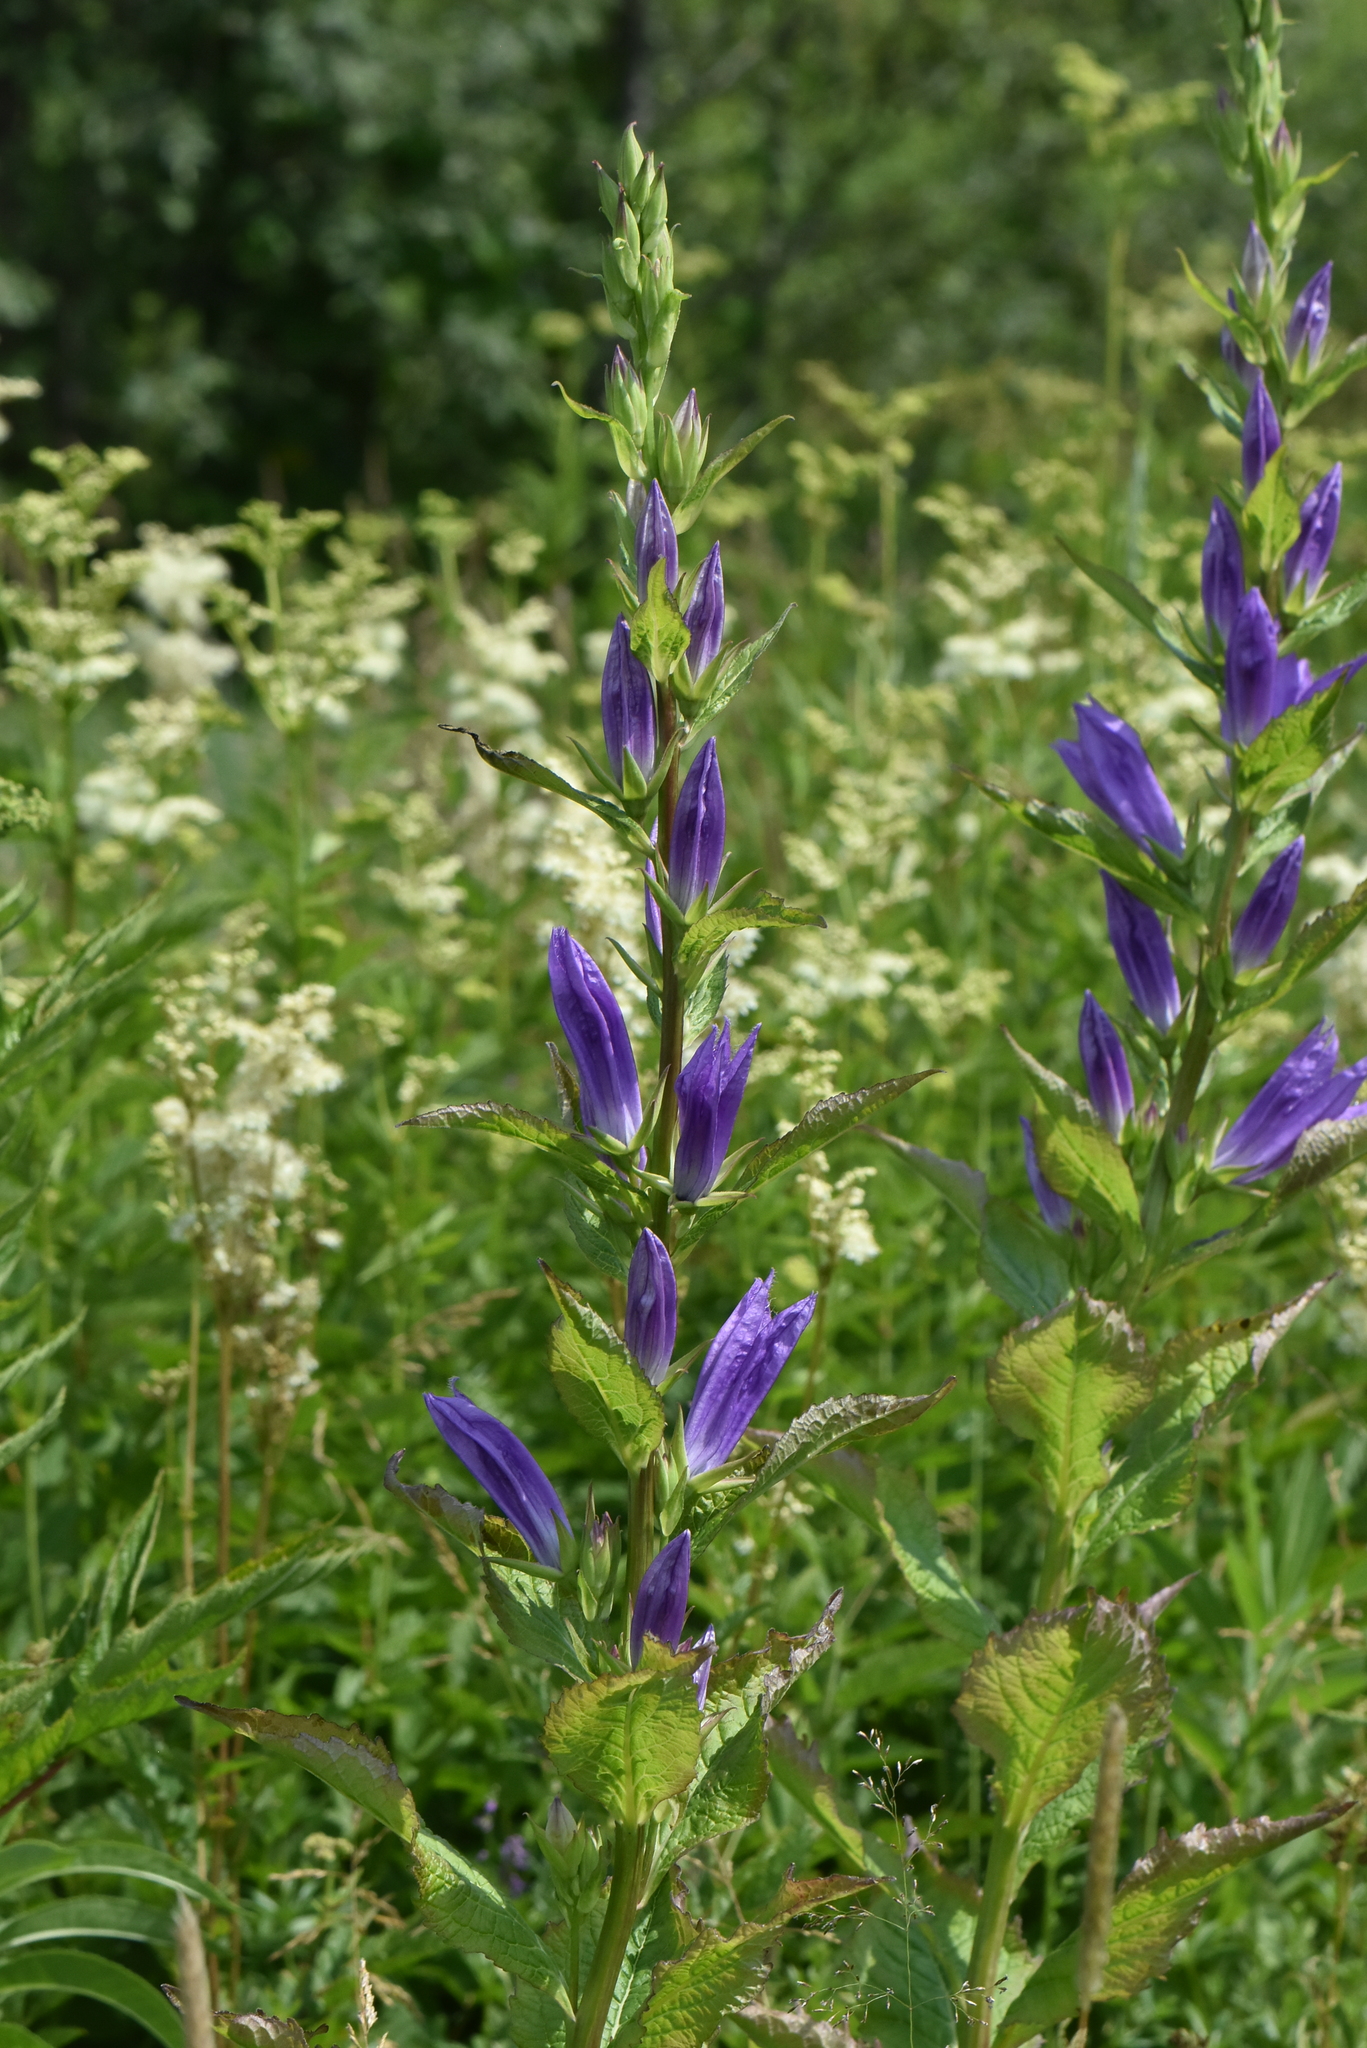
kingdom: Plantae
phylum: Tracheophyta
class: Magnoliopsida
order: Asterales
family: Campanulaceae
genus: Campanula
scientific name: Campanula latifolia
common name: Giant bellflower
